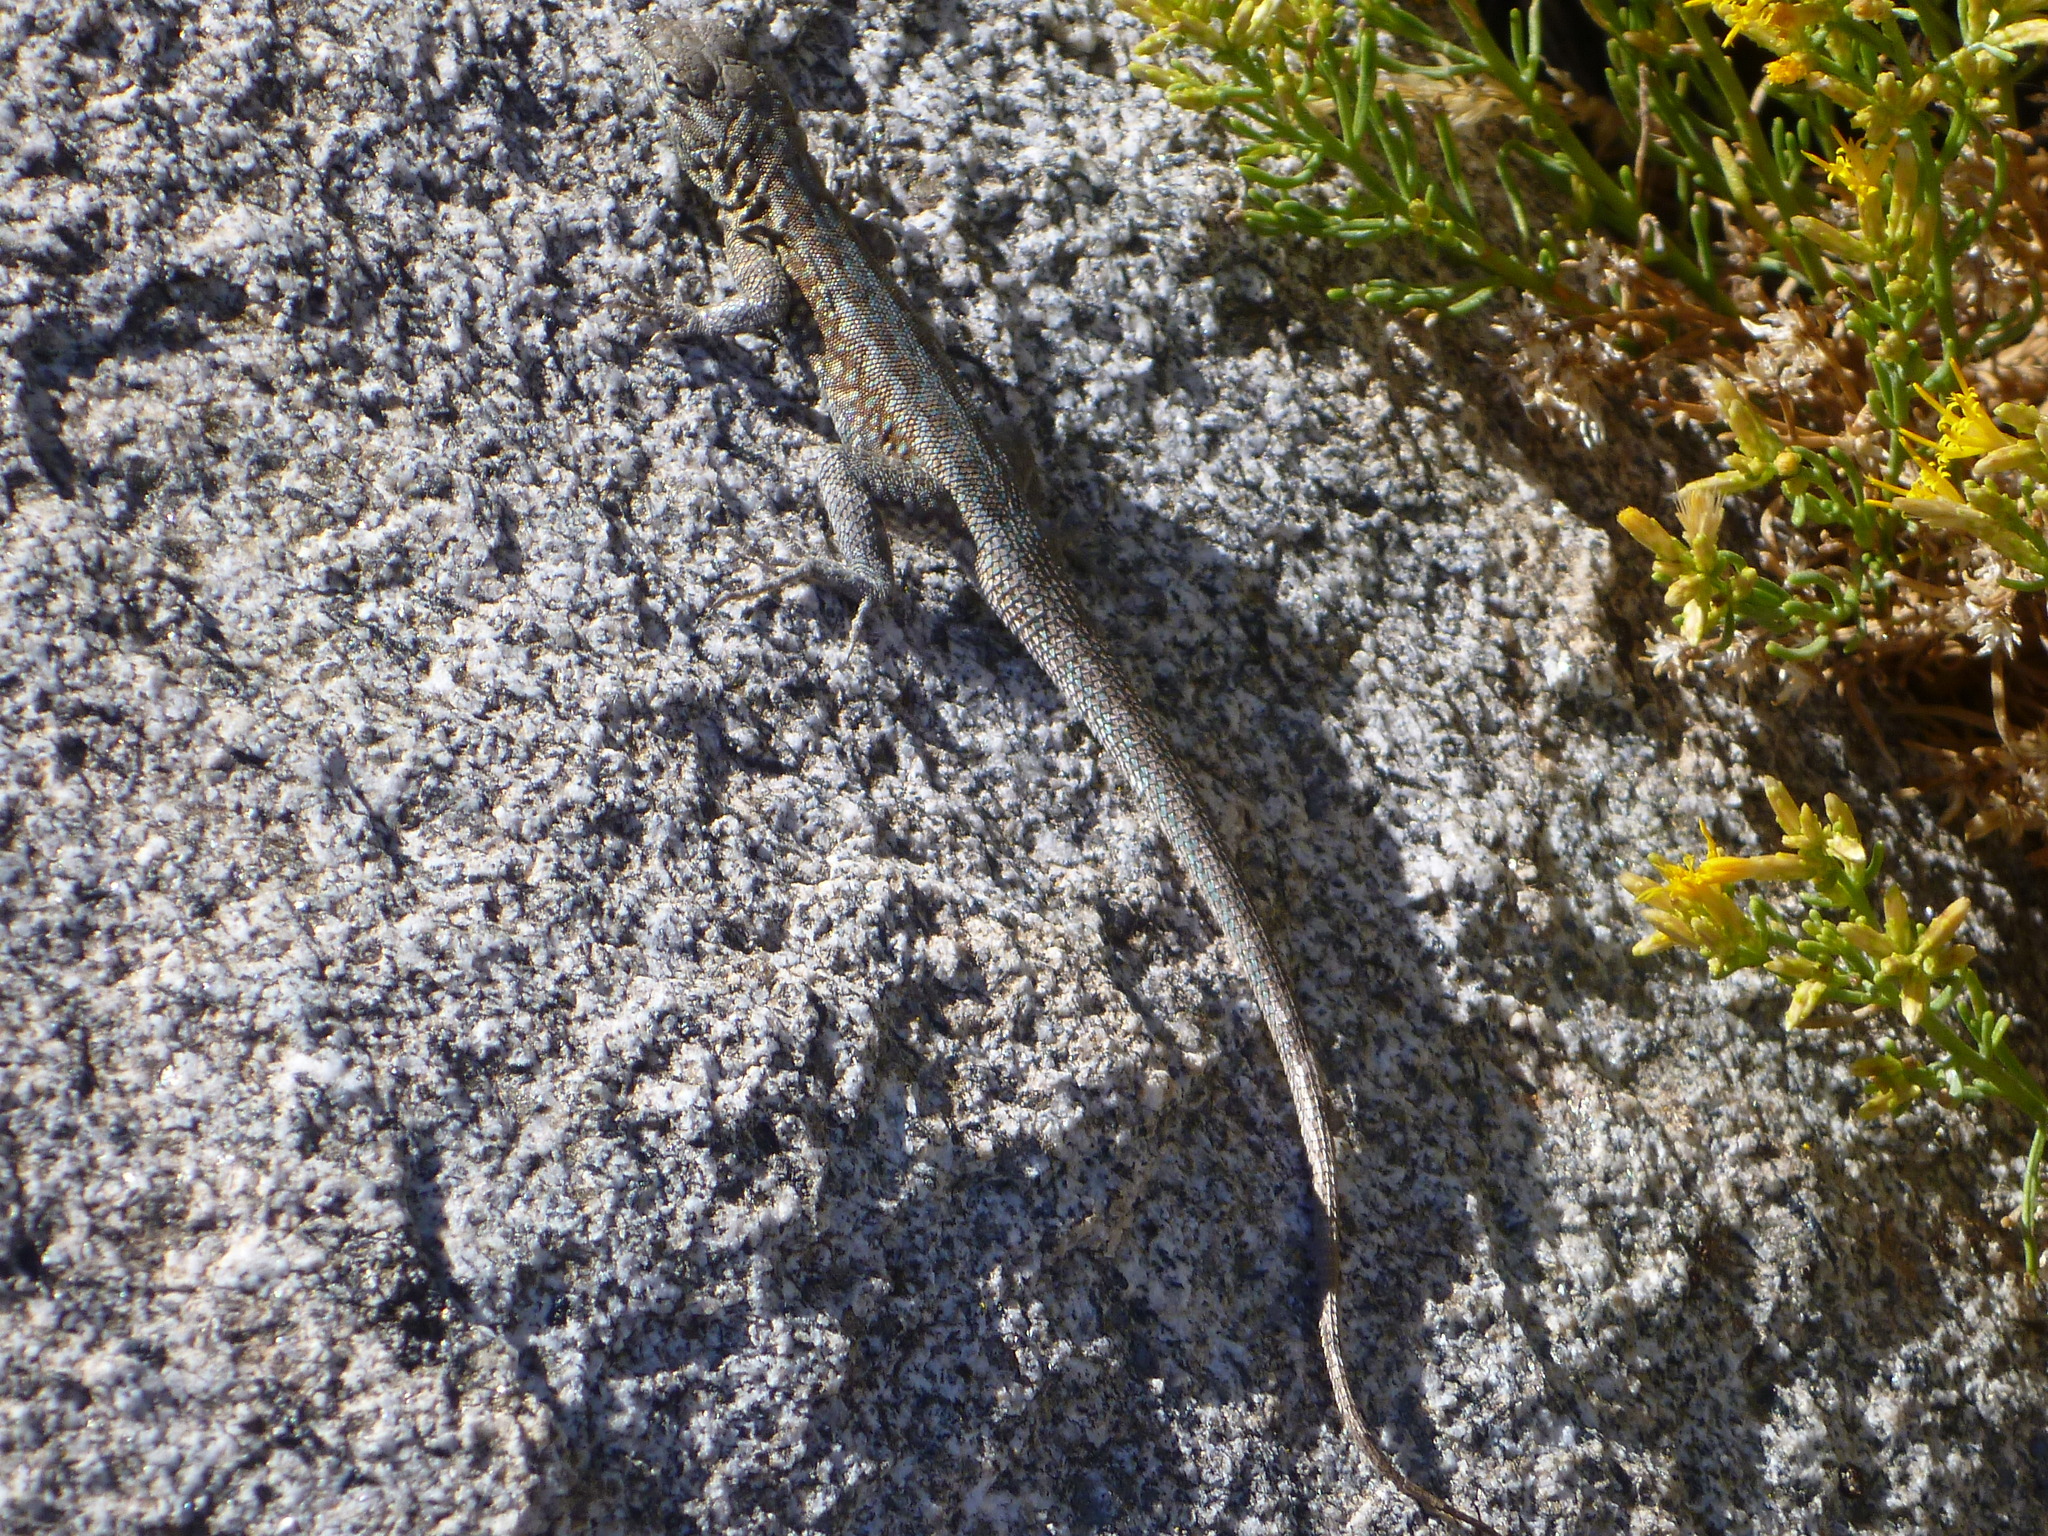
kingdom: Animalia
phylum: Chordata
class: Squamata
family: Phrynosomatidae
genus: Uta
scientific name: Uta stansburiana
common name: Side-blotched lizard
